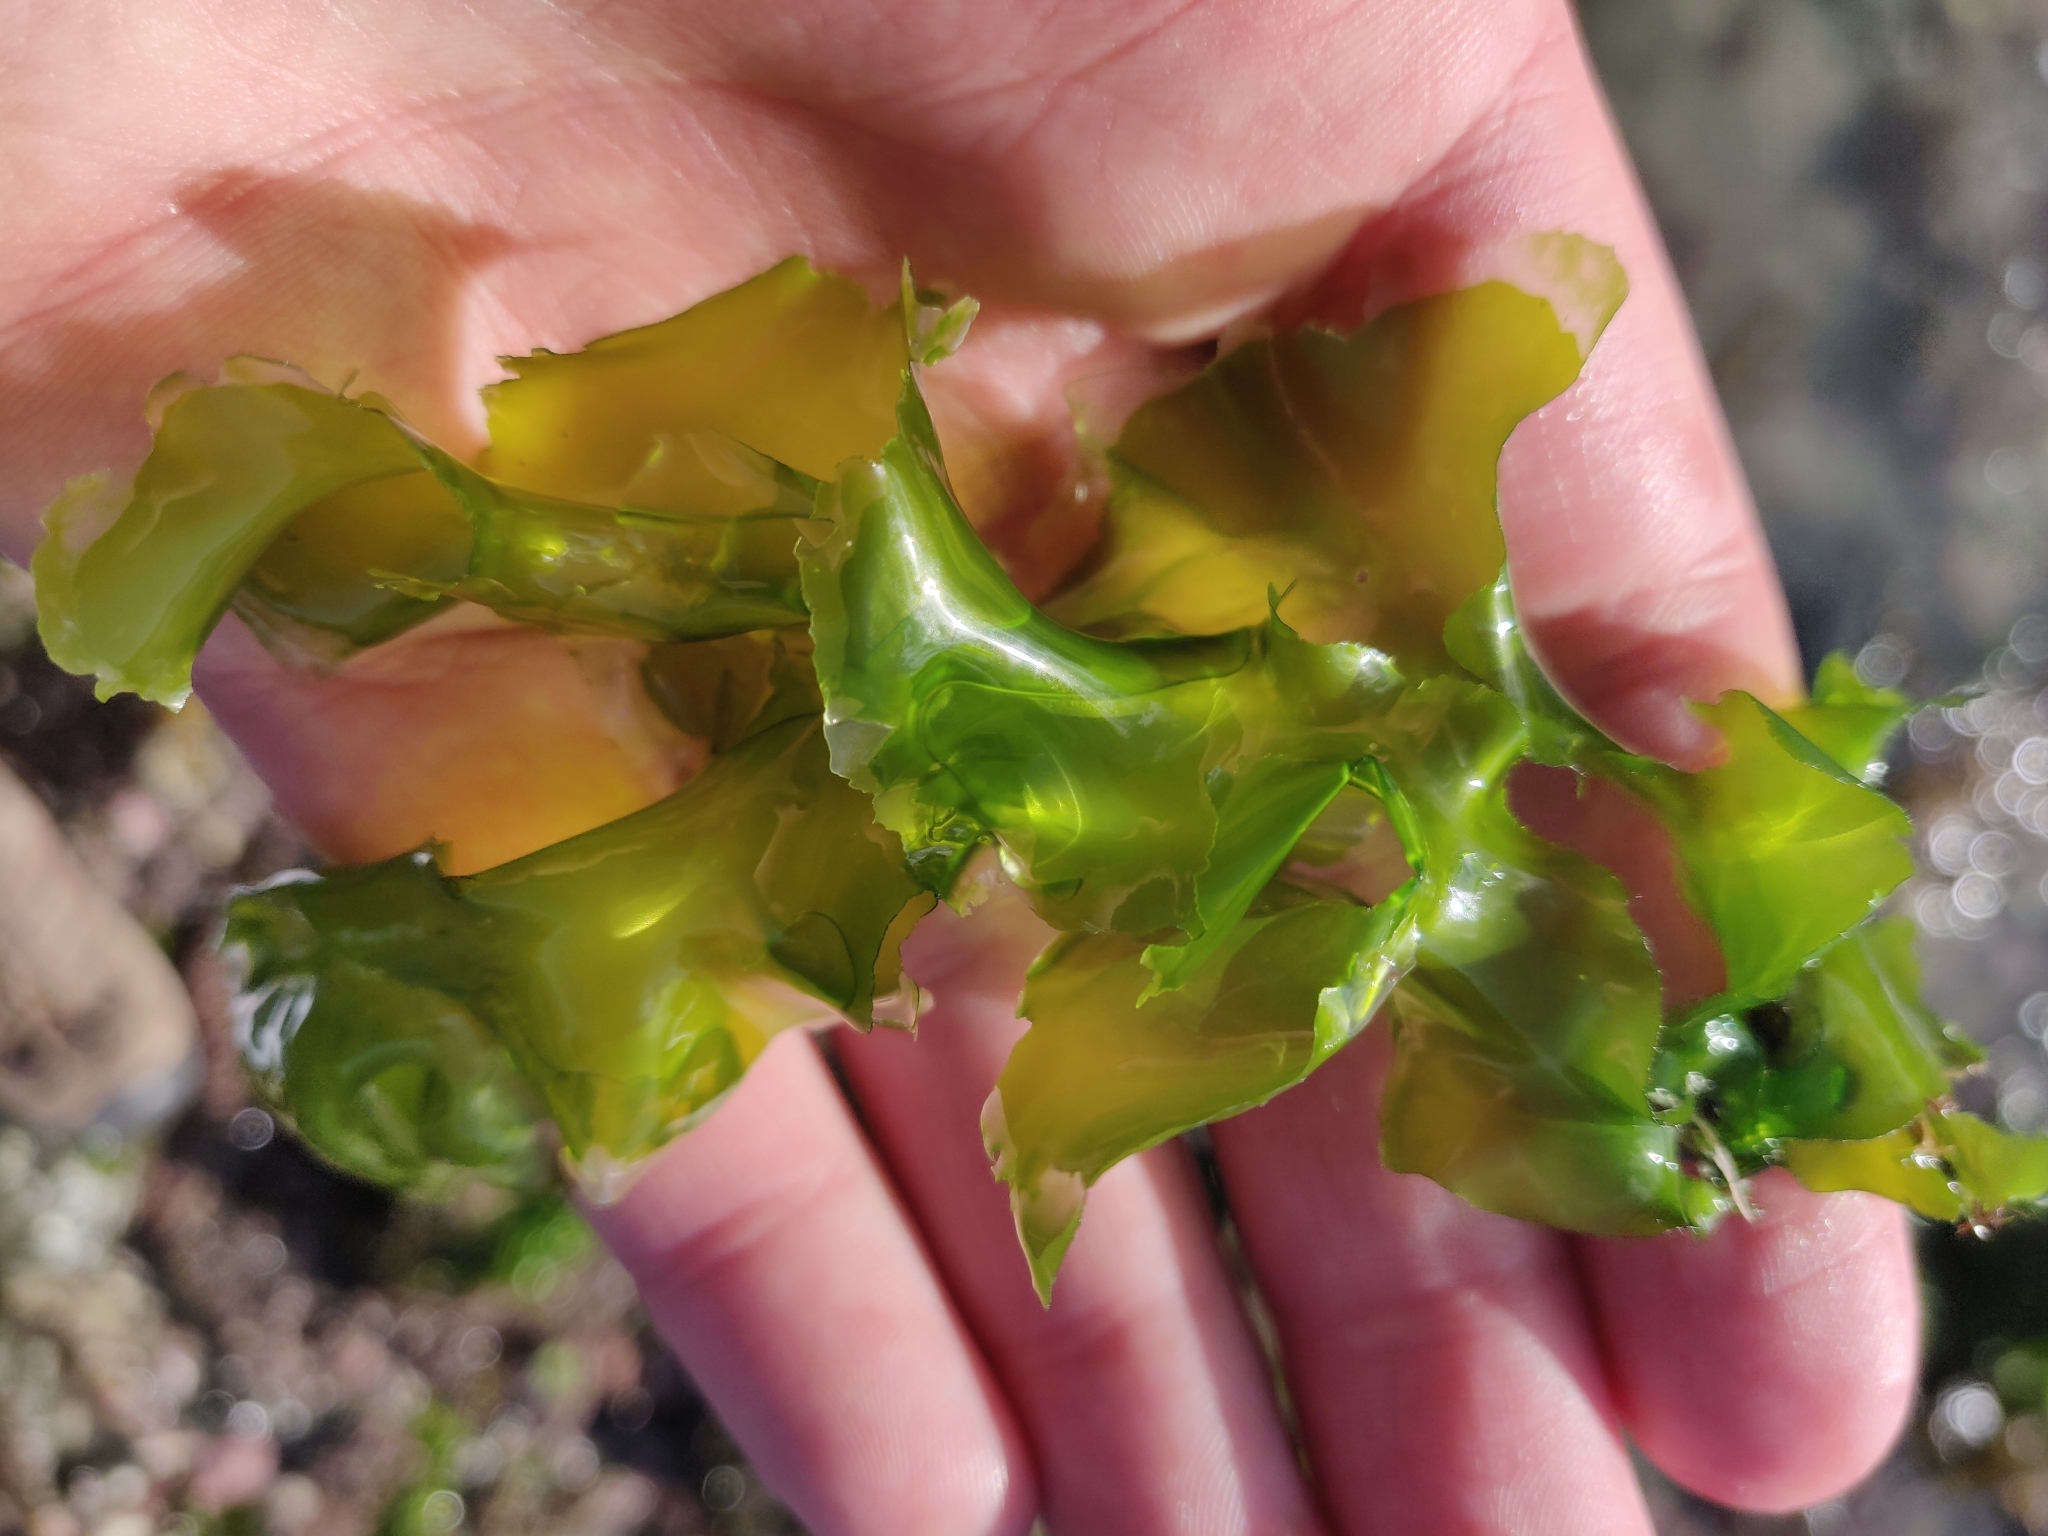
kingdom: Plantae
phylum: Chlorophyta
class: Ulvophyceae
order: Ulvales
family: Ulvaceae
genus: Ulva
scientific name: Ulva
